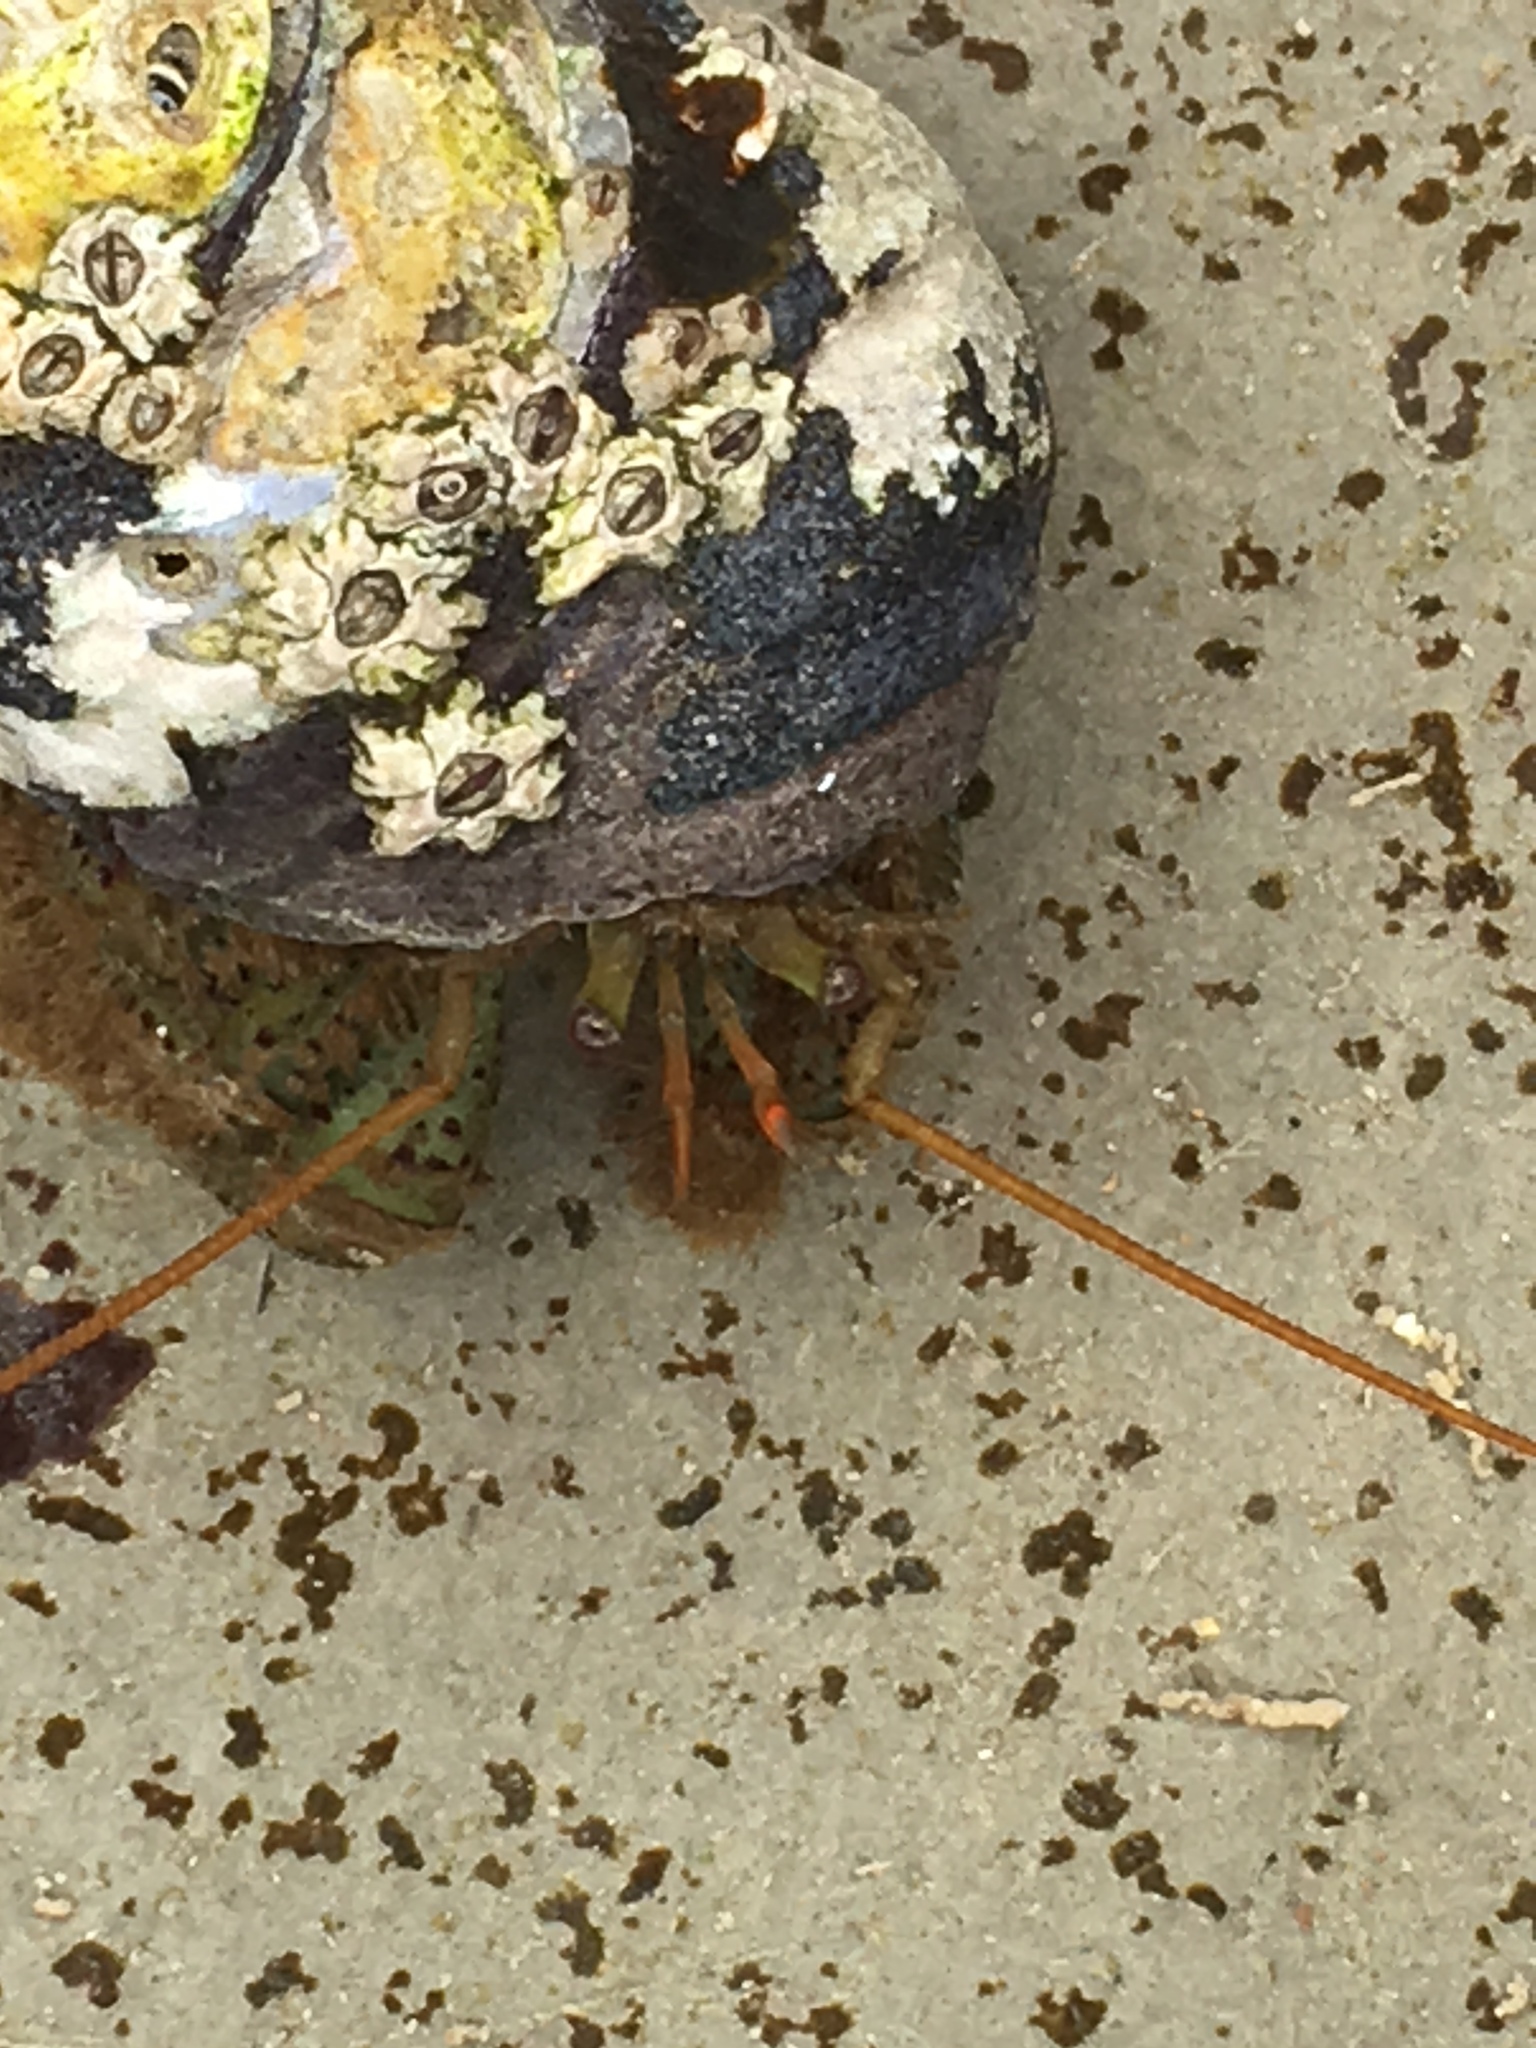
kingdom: Animalia
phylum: Arthropoda
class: Malacostraca
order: Decapoda
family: Paguridae
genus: Pagurus
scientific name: Pagurus samuelis
